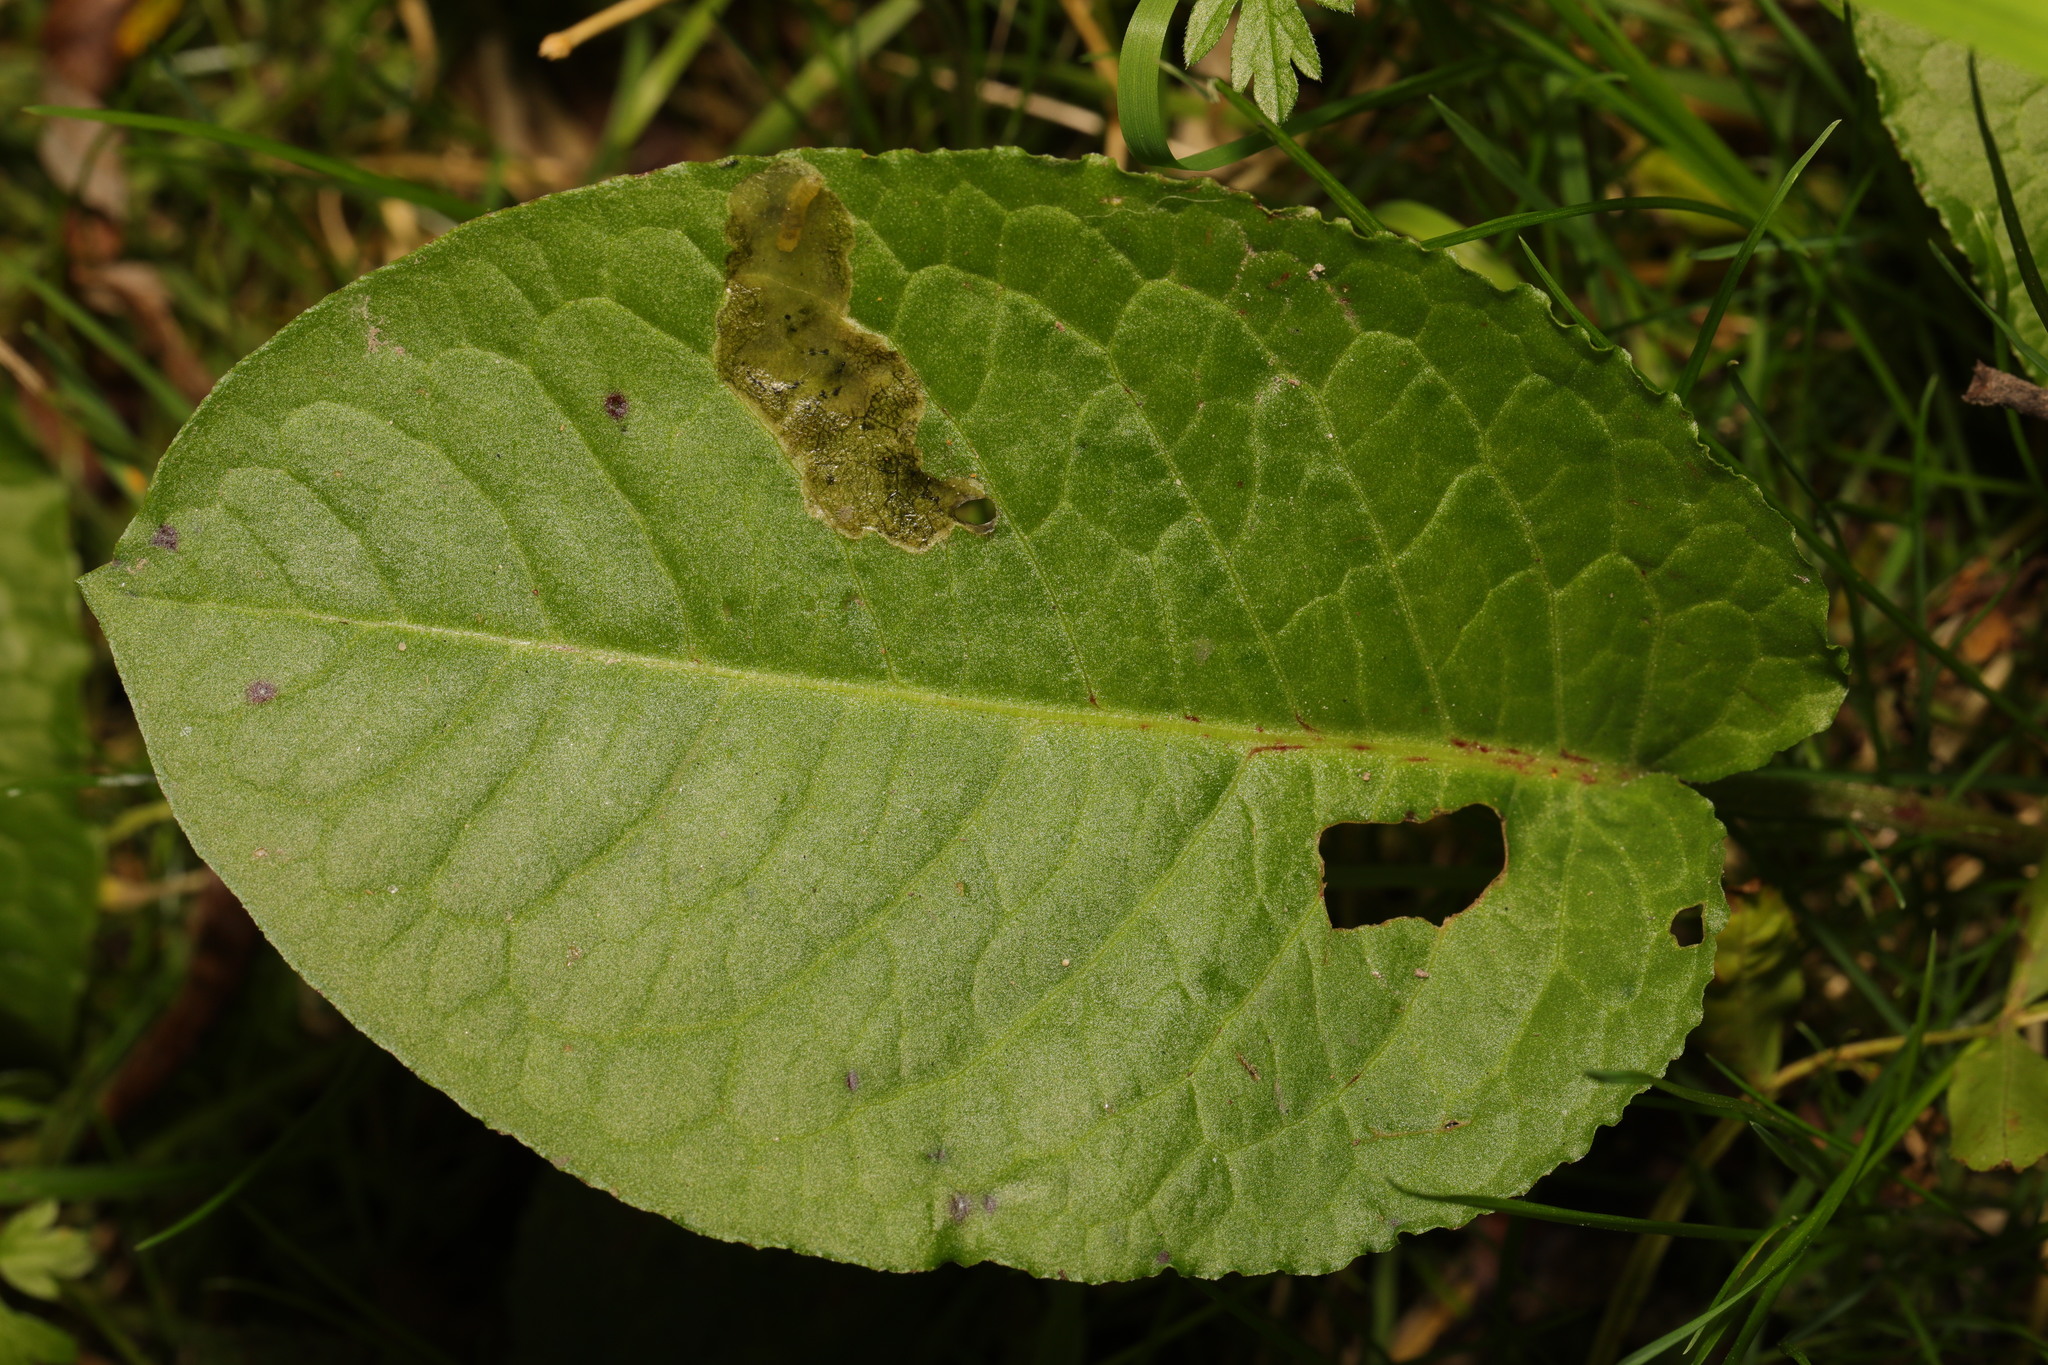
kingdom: Plantae
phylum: Tracheophyta
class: Magnoliopsida
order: Caryophyllales
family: Polygonaceae
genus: Rumex
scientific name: Rumex obtusifolius
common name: Bitter dock
